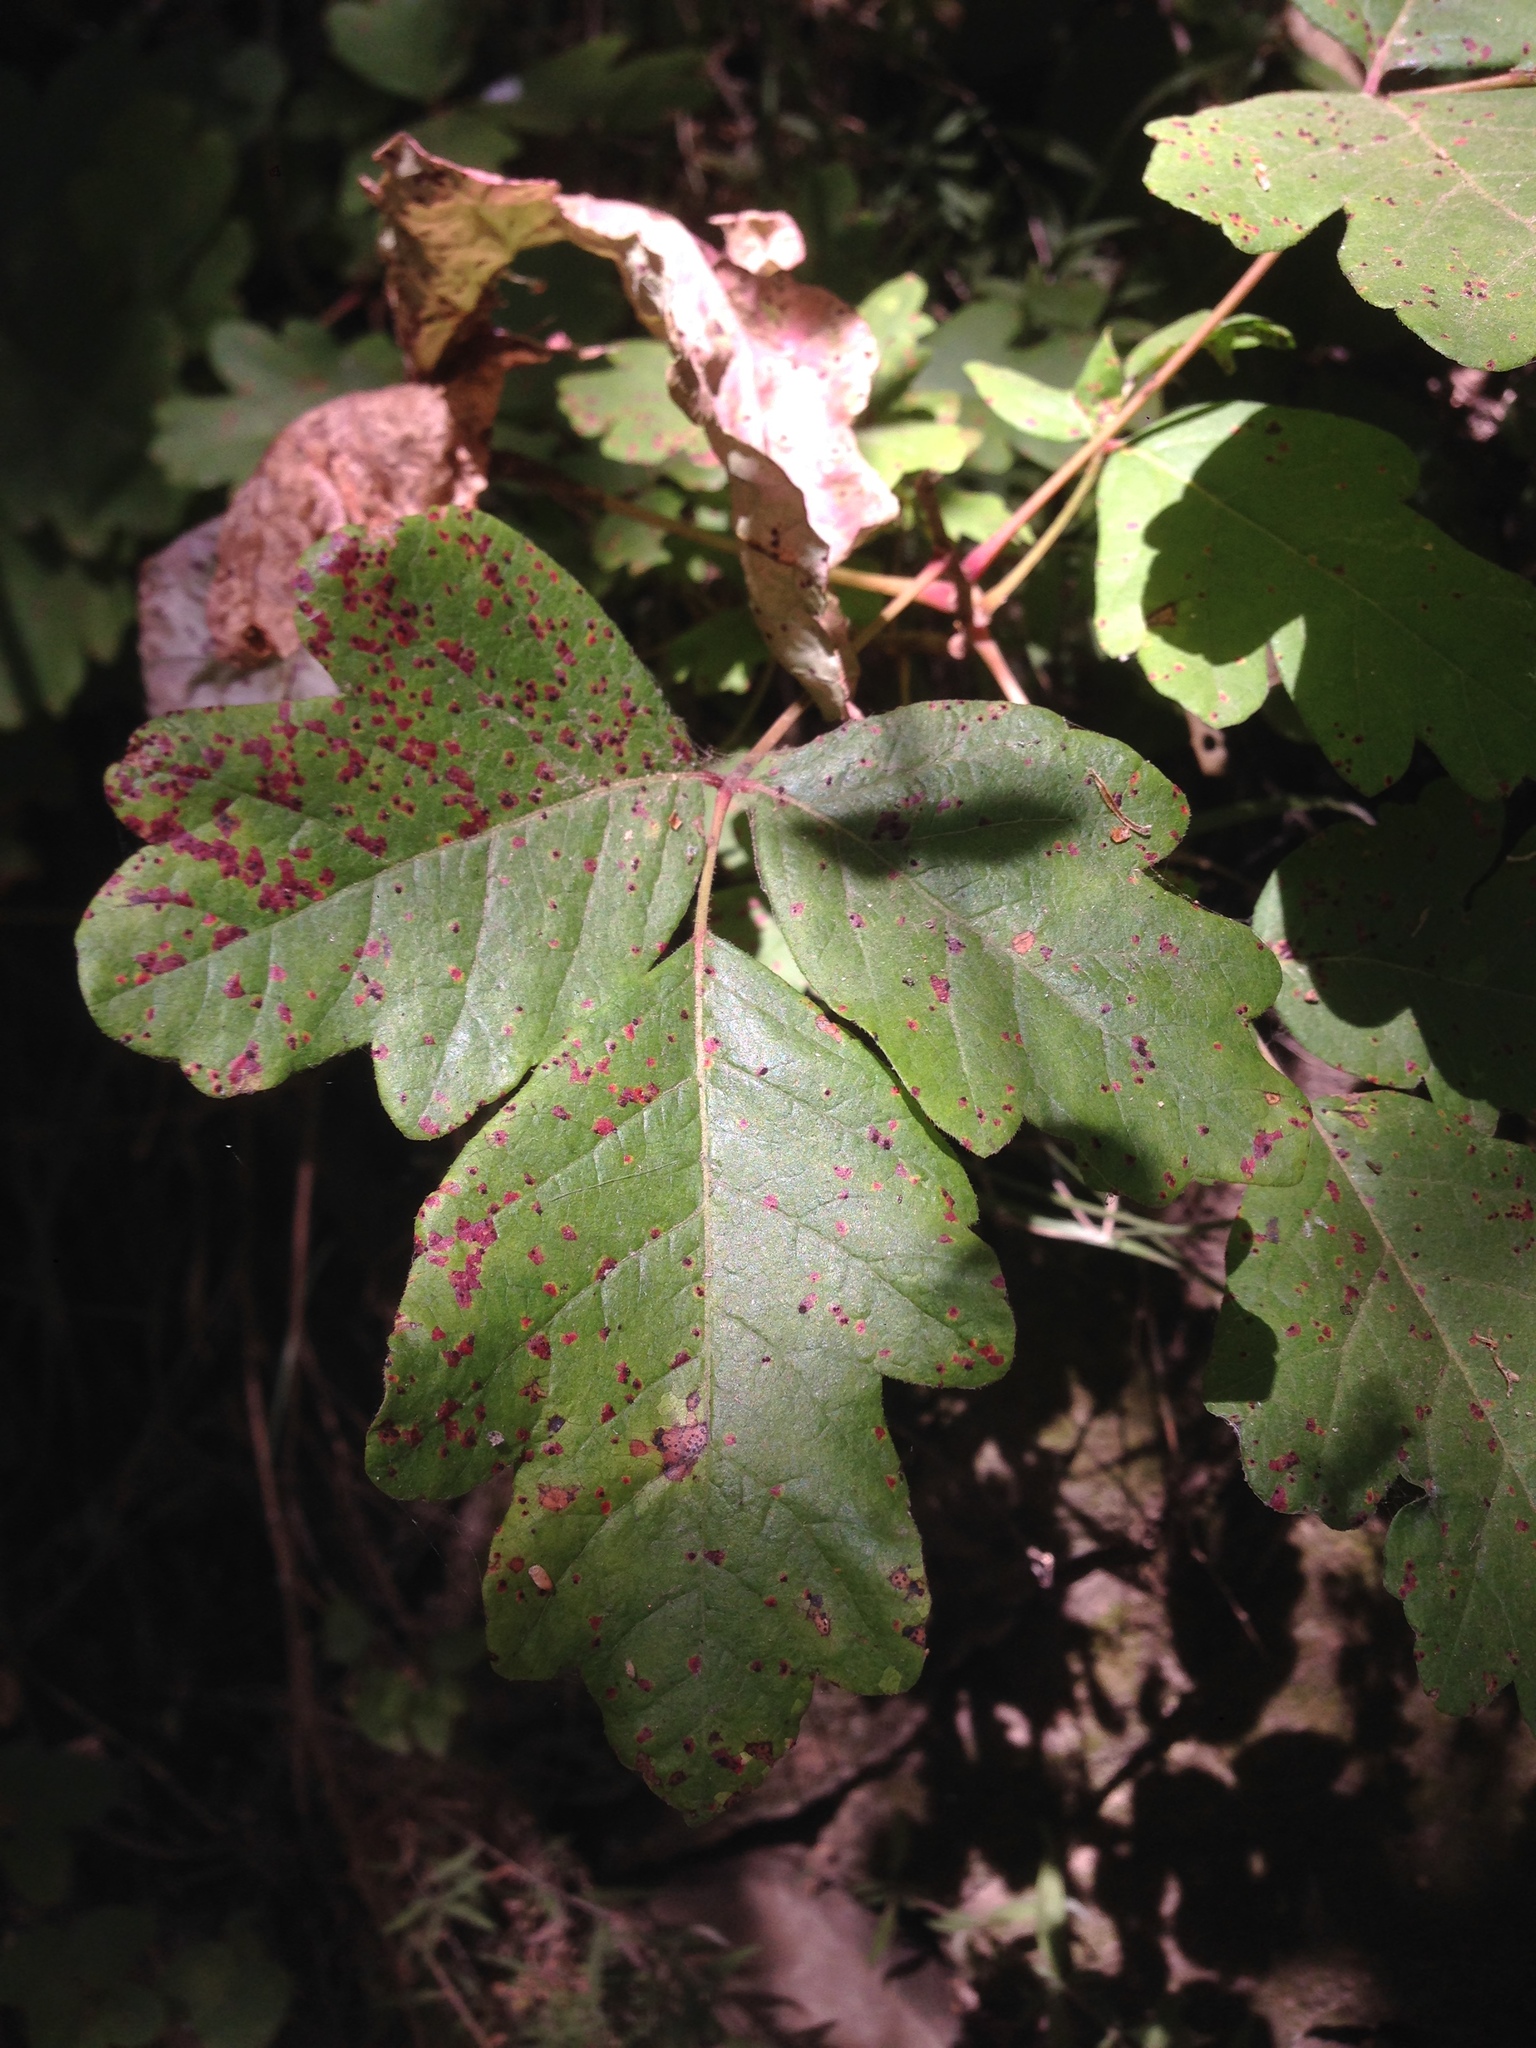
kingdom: Plantae
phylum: Tracheophyta
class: Magnoliopsida
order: Sapindales
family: Anacardiaceae
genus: Toxicodendron
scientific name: Toxicodendron diversilobum
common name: Pacific poison-oak
